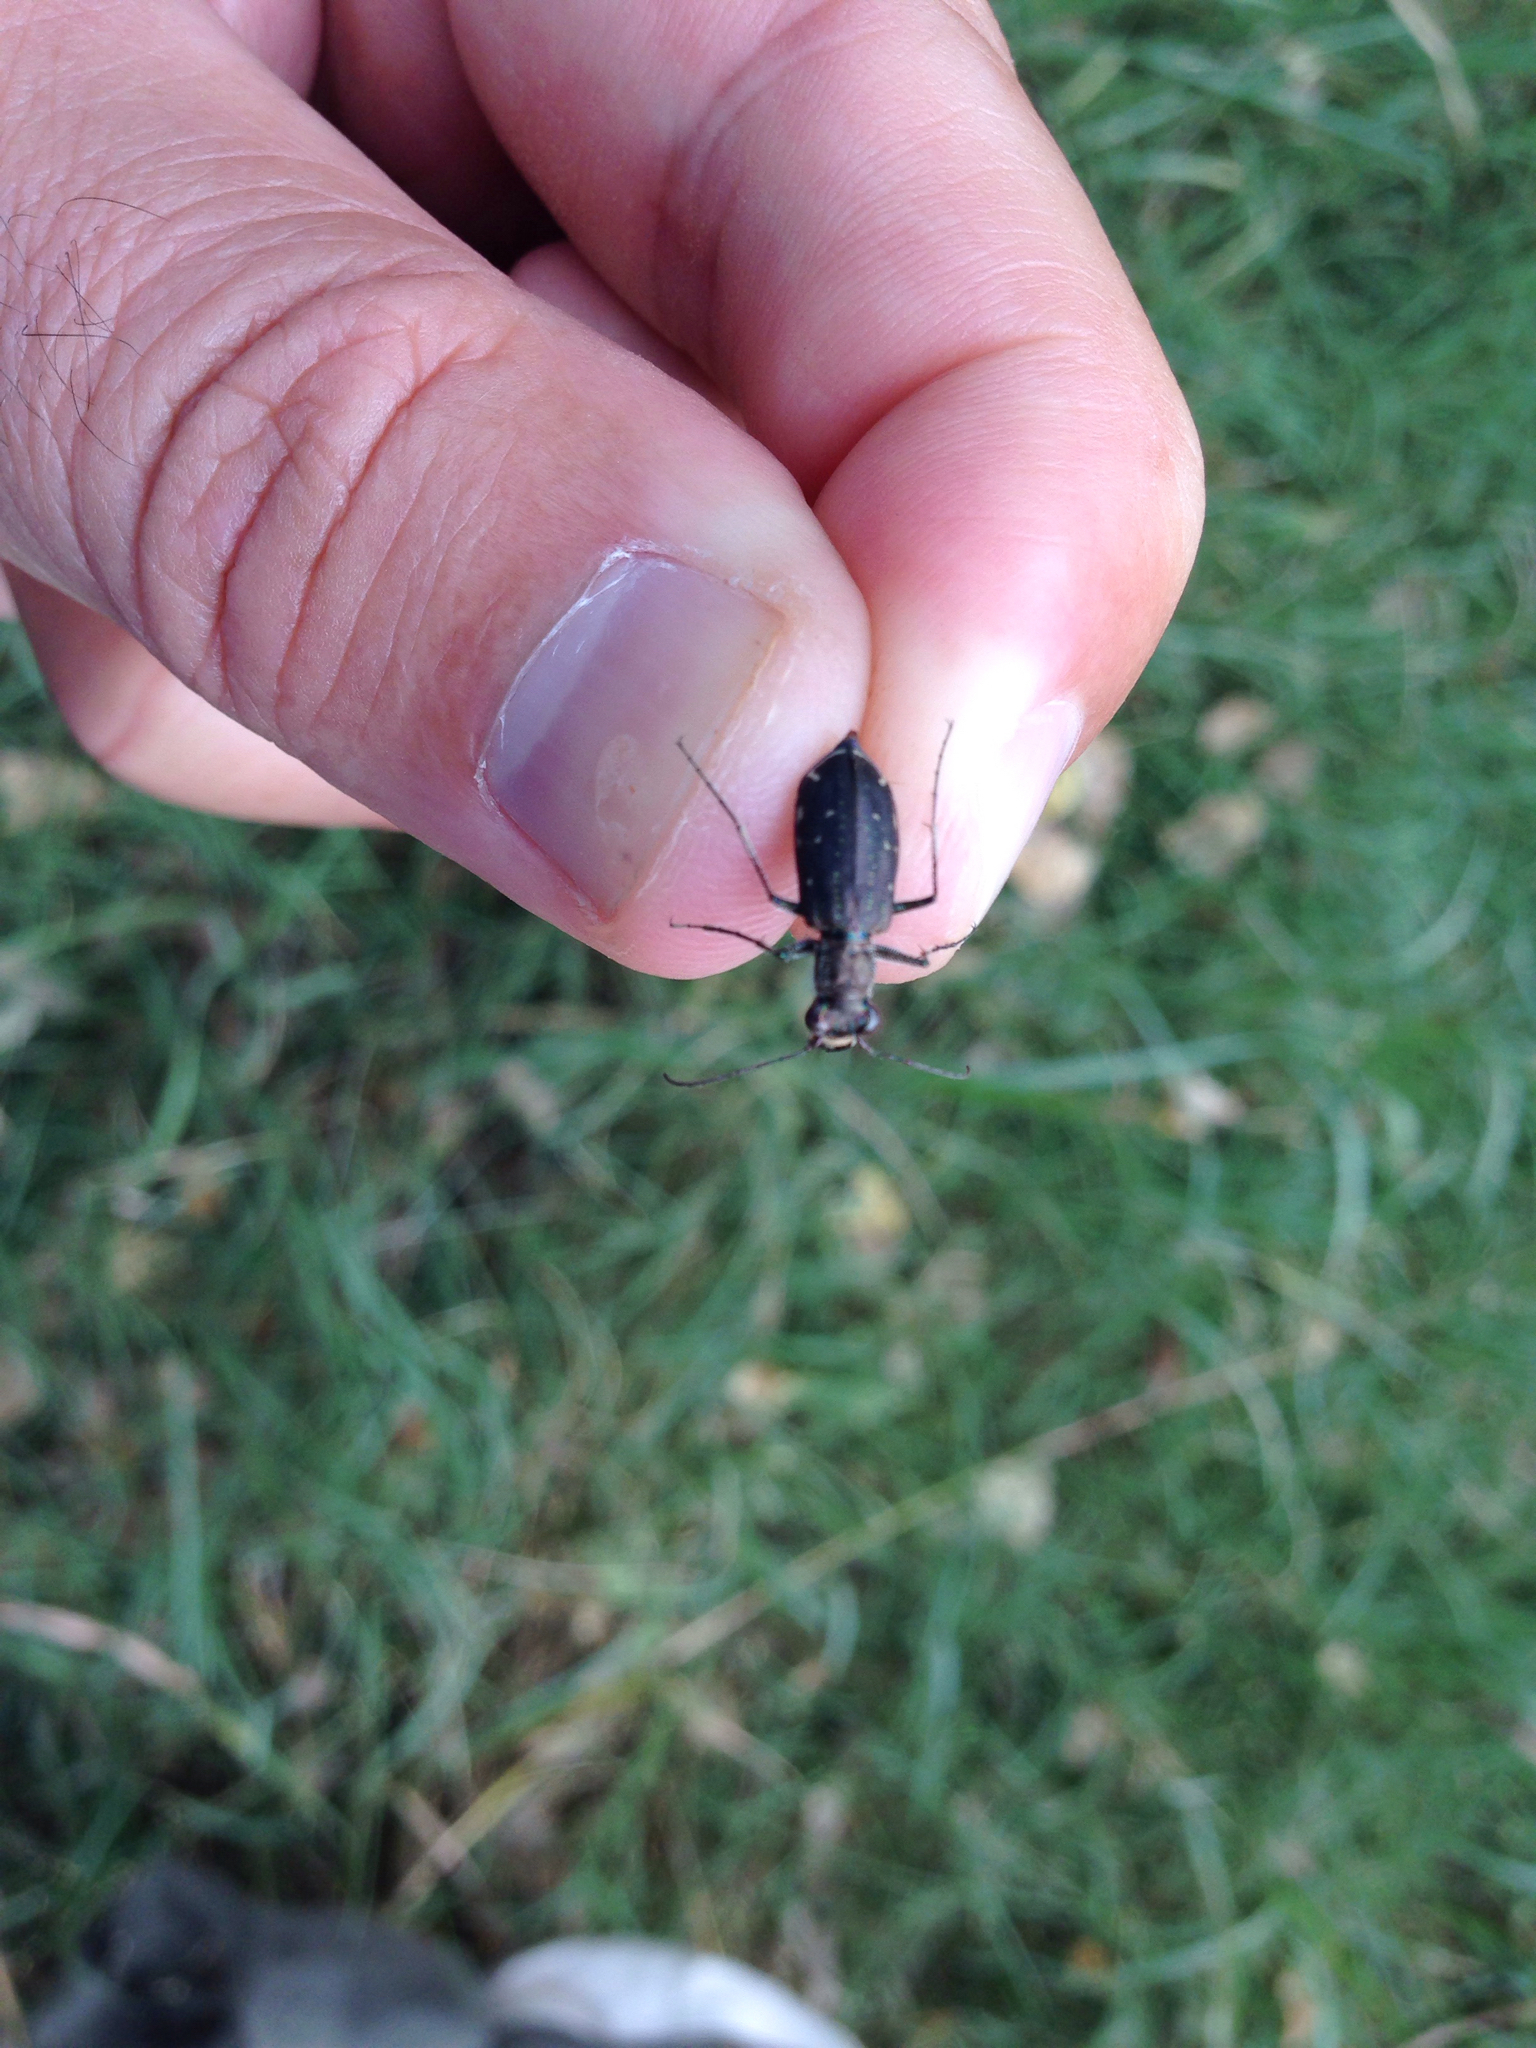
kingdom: Animalia
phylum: Arthropoda
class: Insecta
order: Coleoptera
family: Carabidae
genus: Cicindela
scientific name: Cicindela punctulata
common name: Punctured tiger beetle
